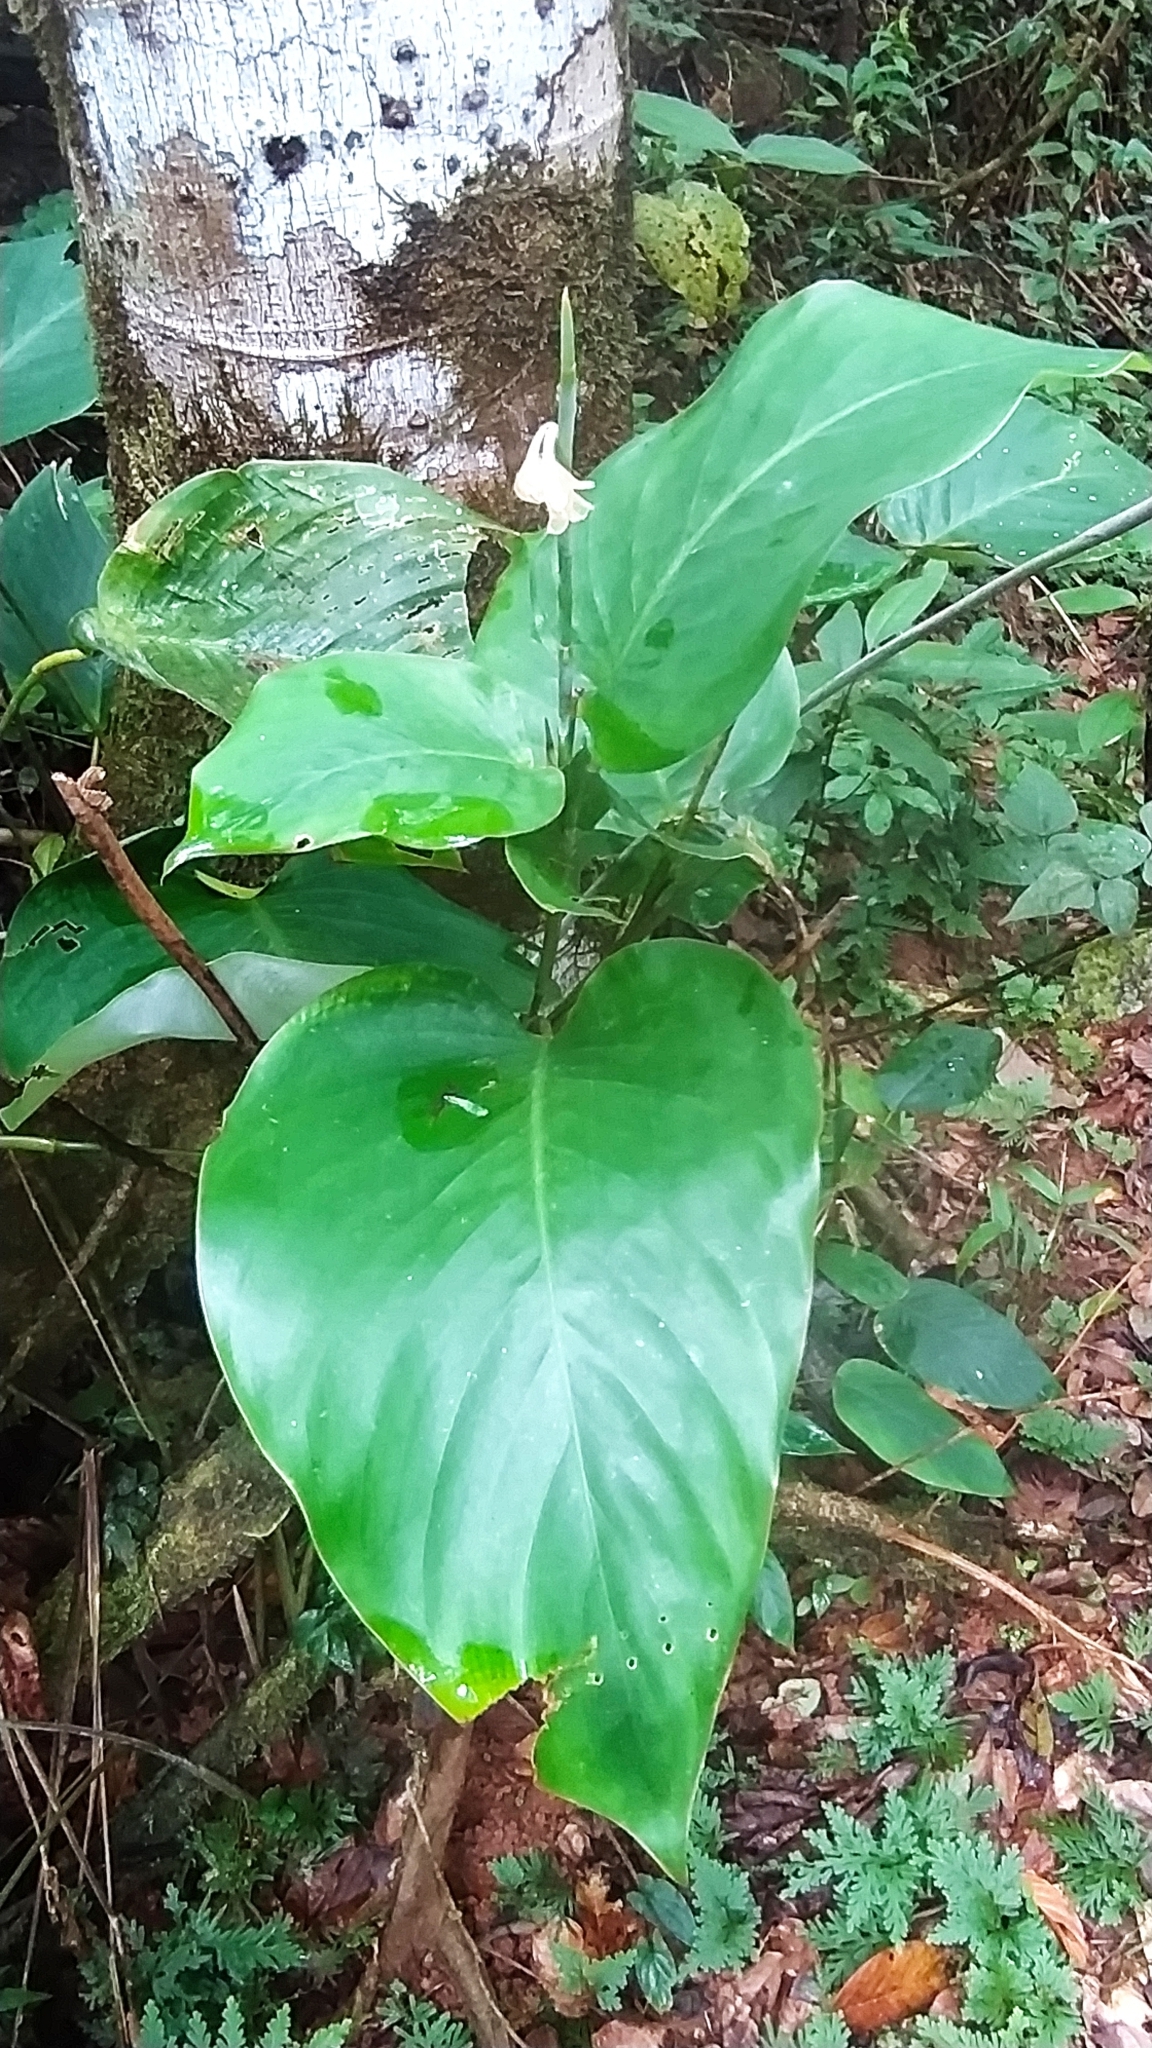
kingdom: Plantae
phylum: Tracheophyta
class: Liliopsida
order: Zingiberales
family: Marantaceae
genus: Ischnosiphon
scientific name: Ischnosiphon leucophaeus
